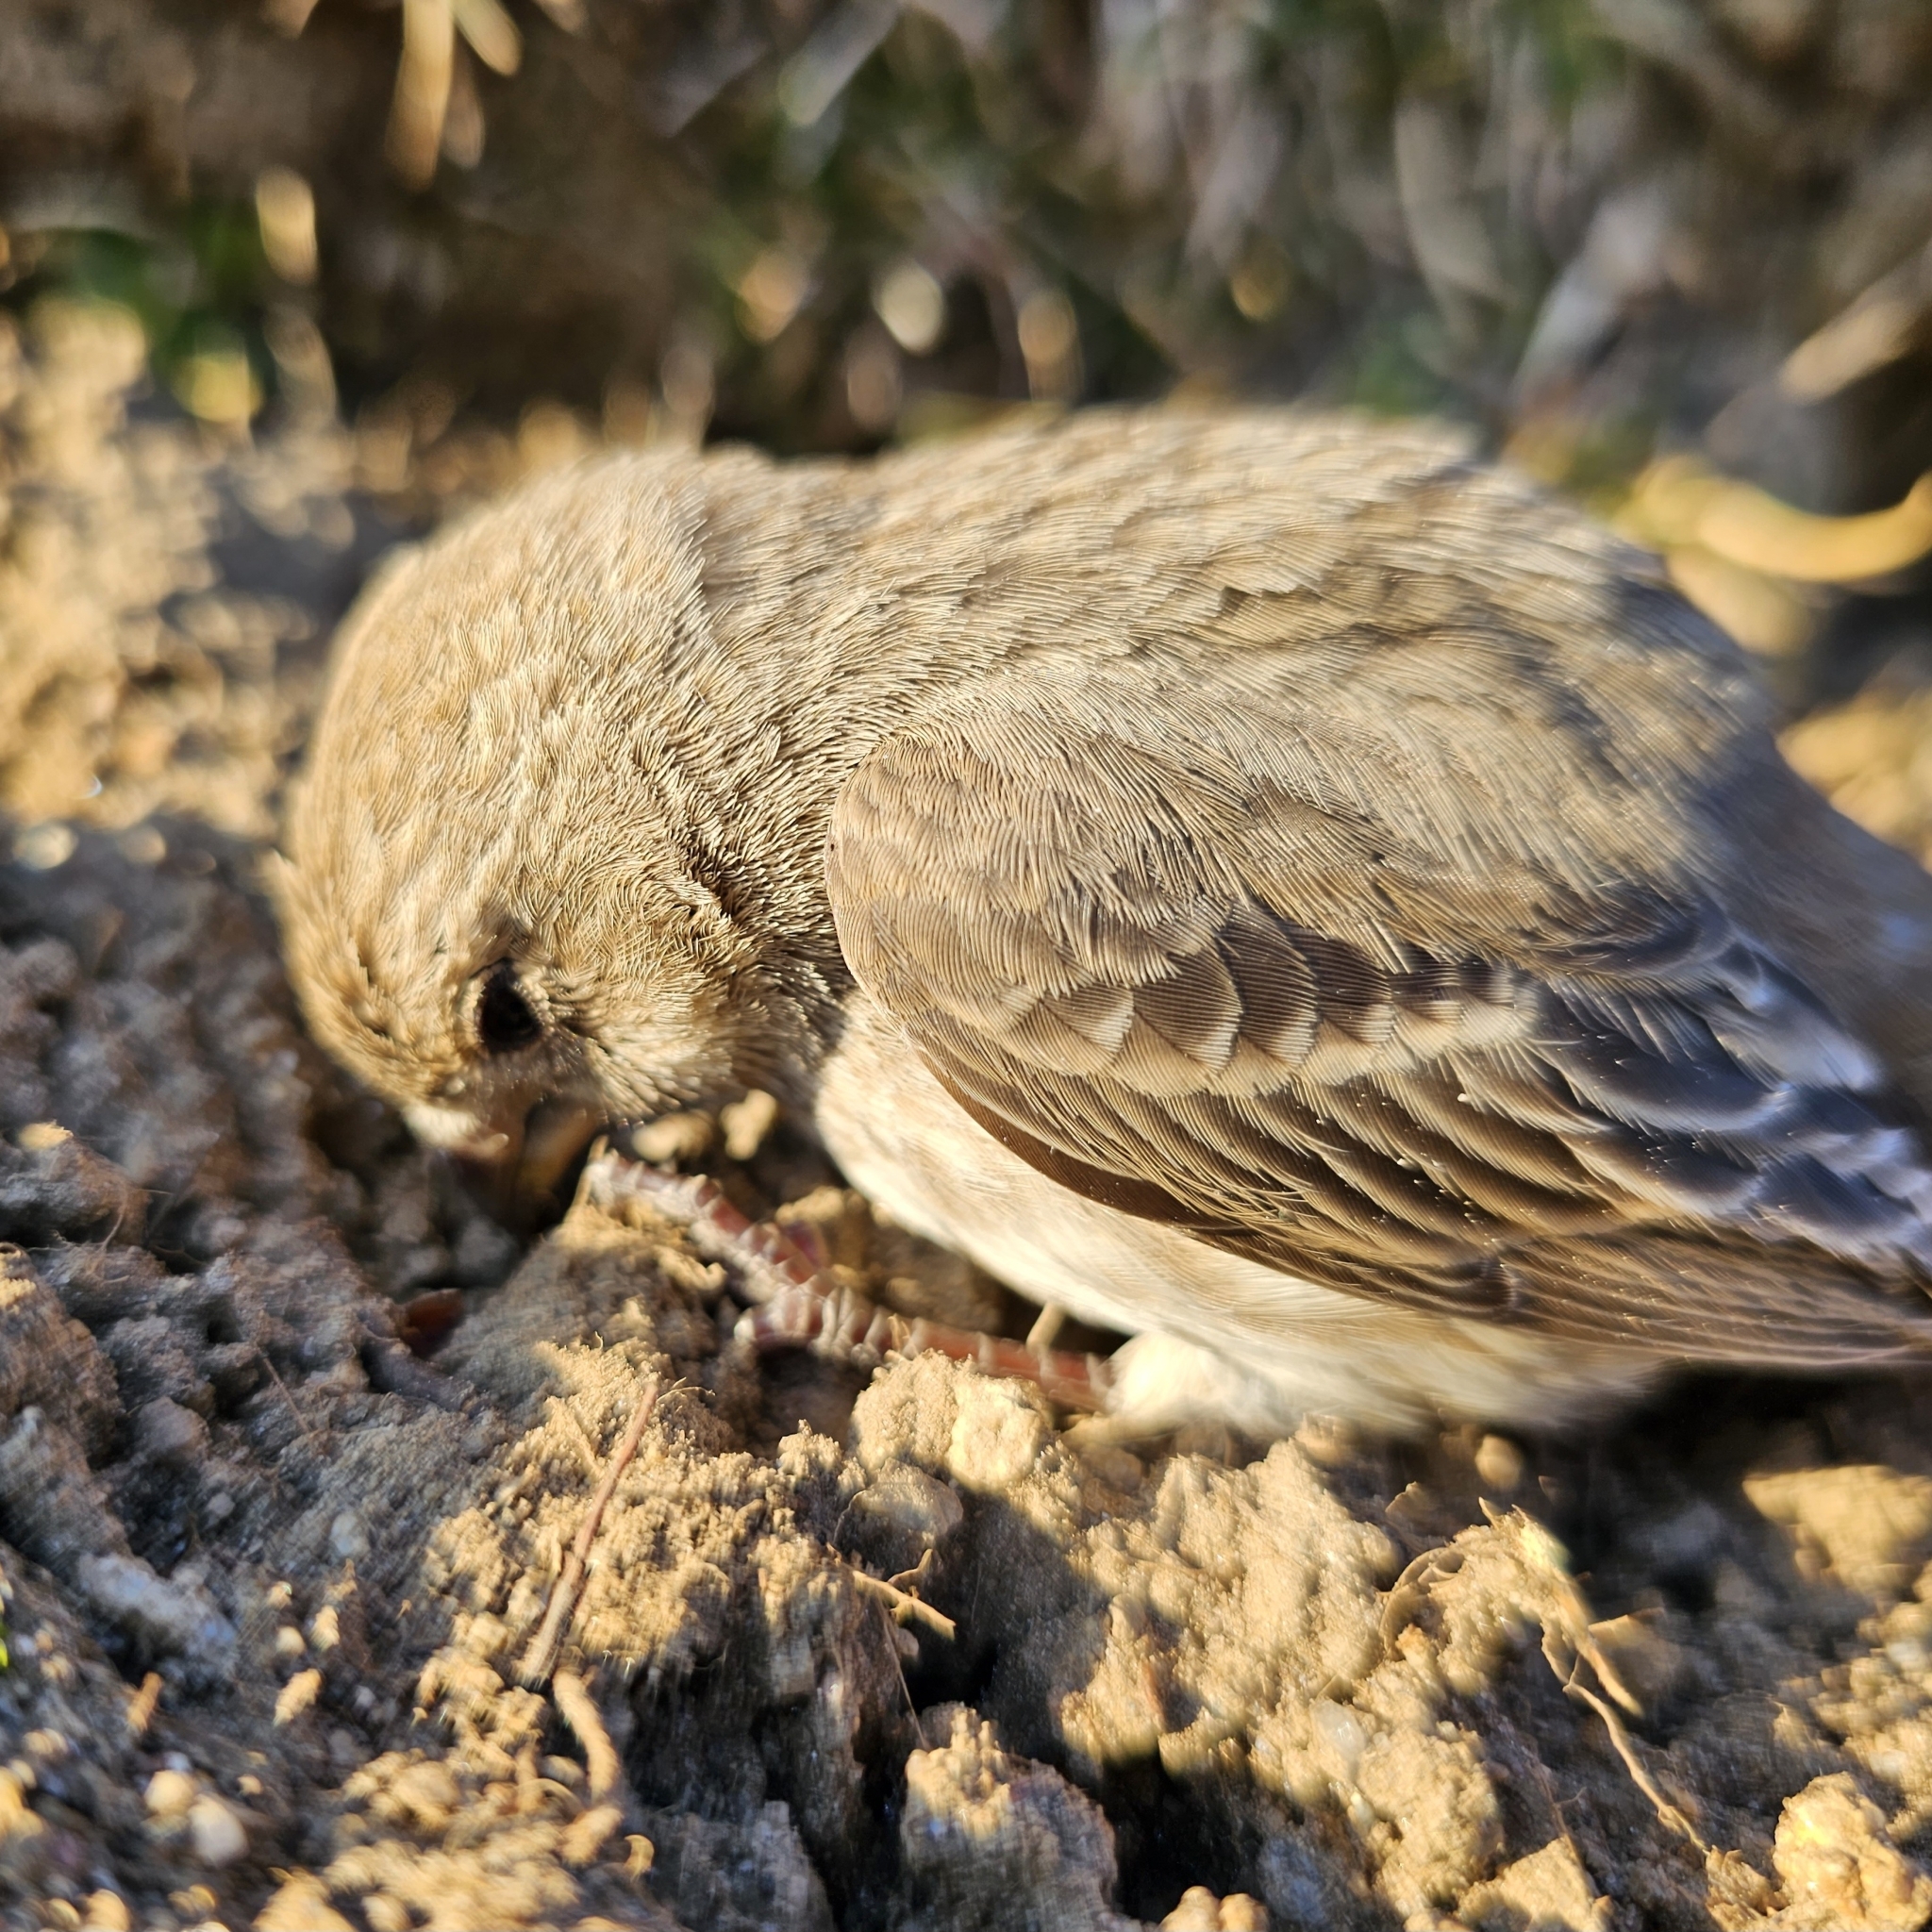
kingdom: Animalia
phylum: Chordata
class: Aves
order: Passeriformes
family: Fringillidae
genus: Haemorhous
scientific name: Haemorhous mexicanus
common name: House finch
